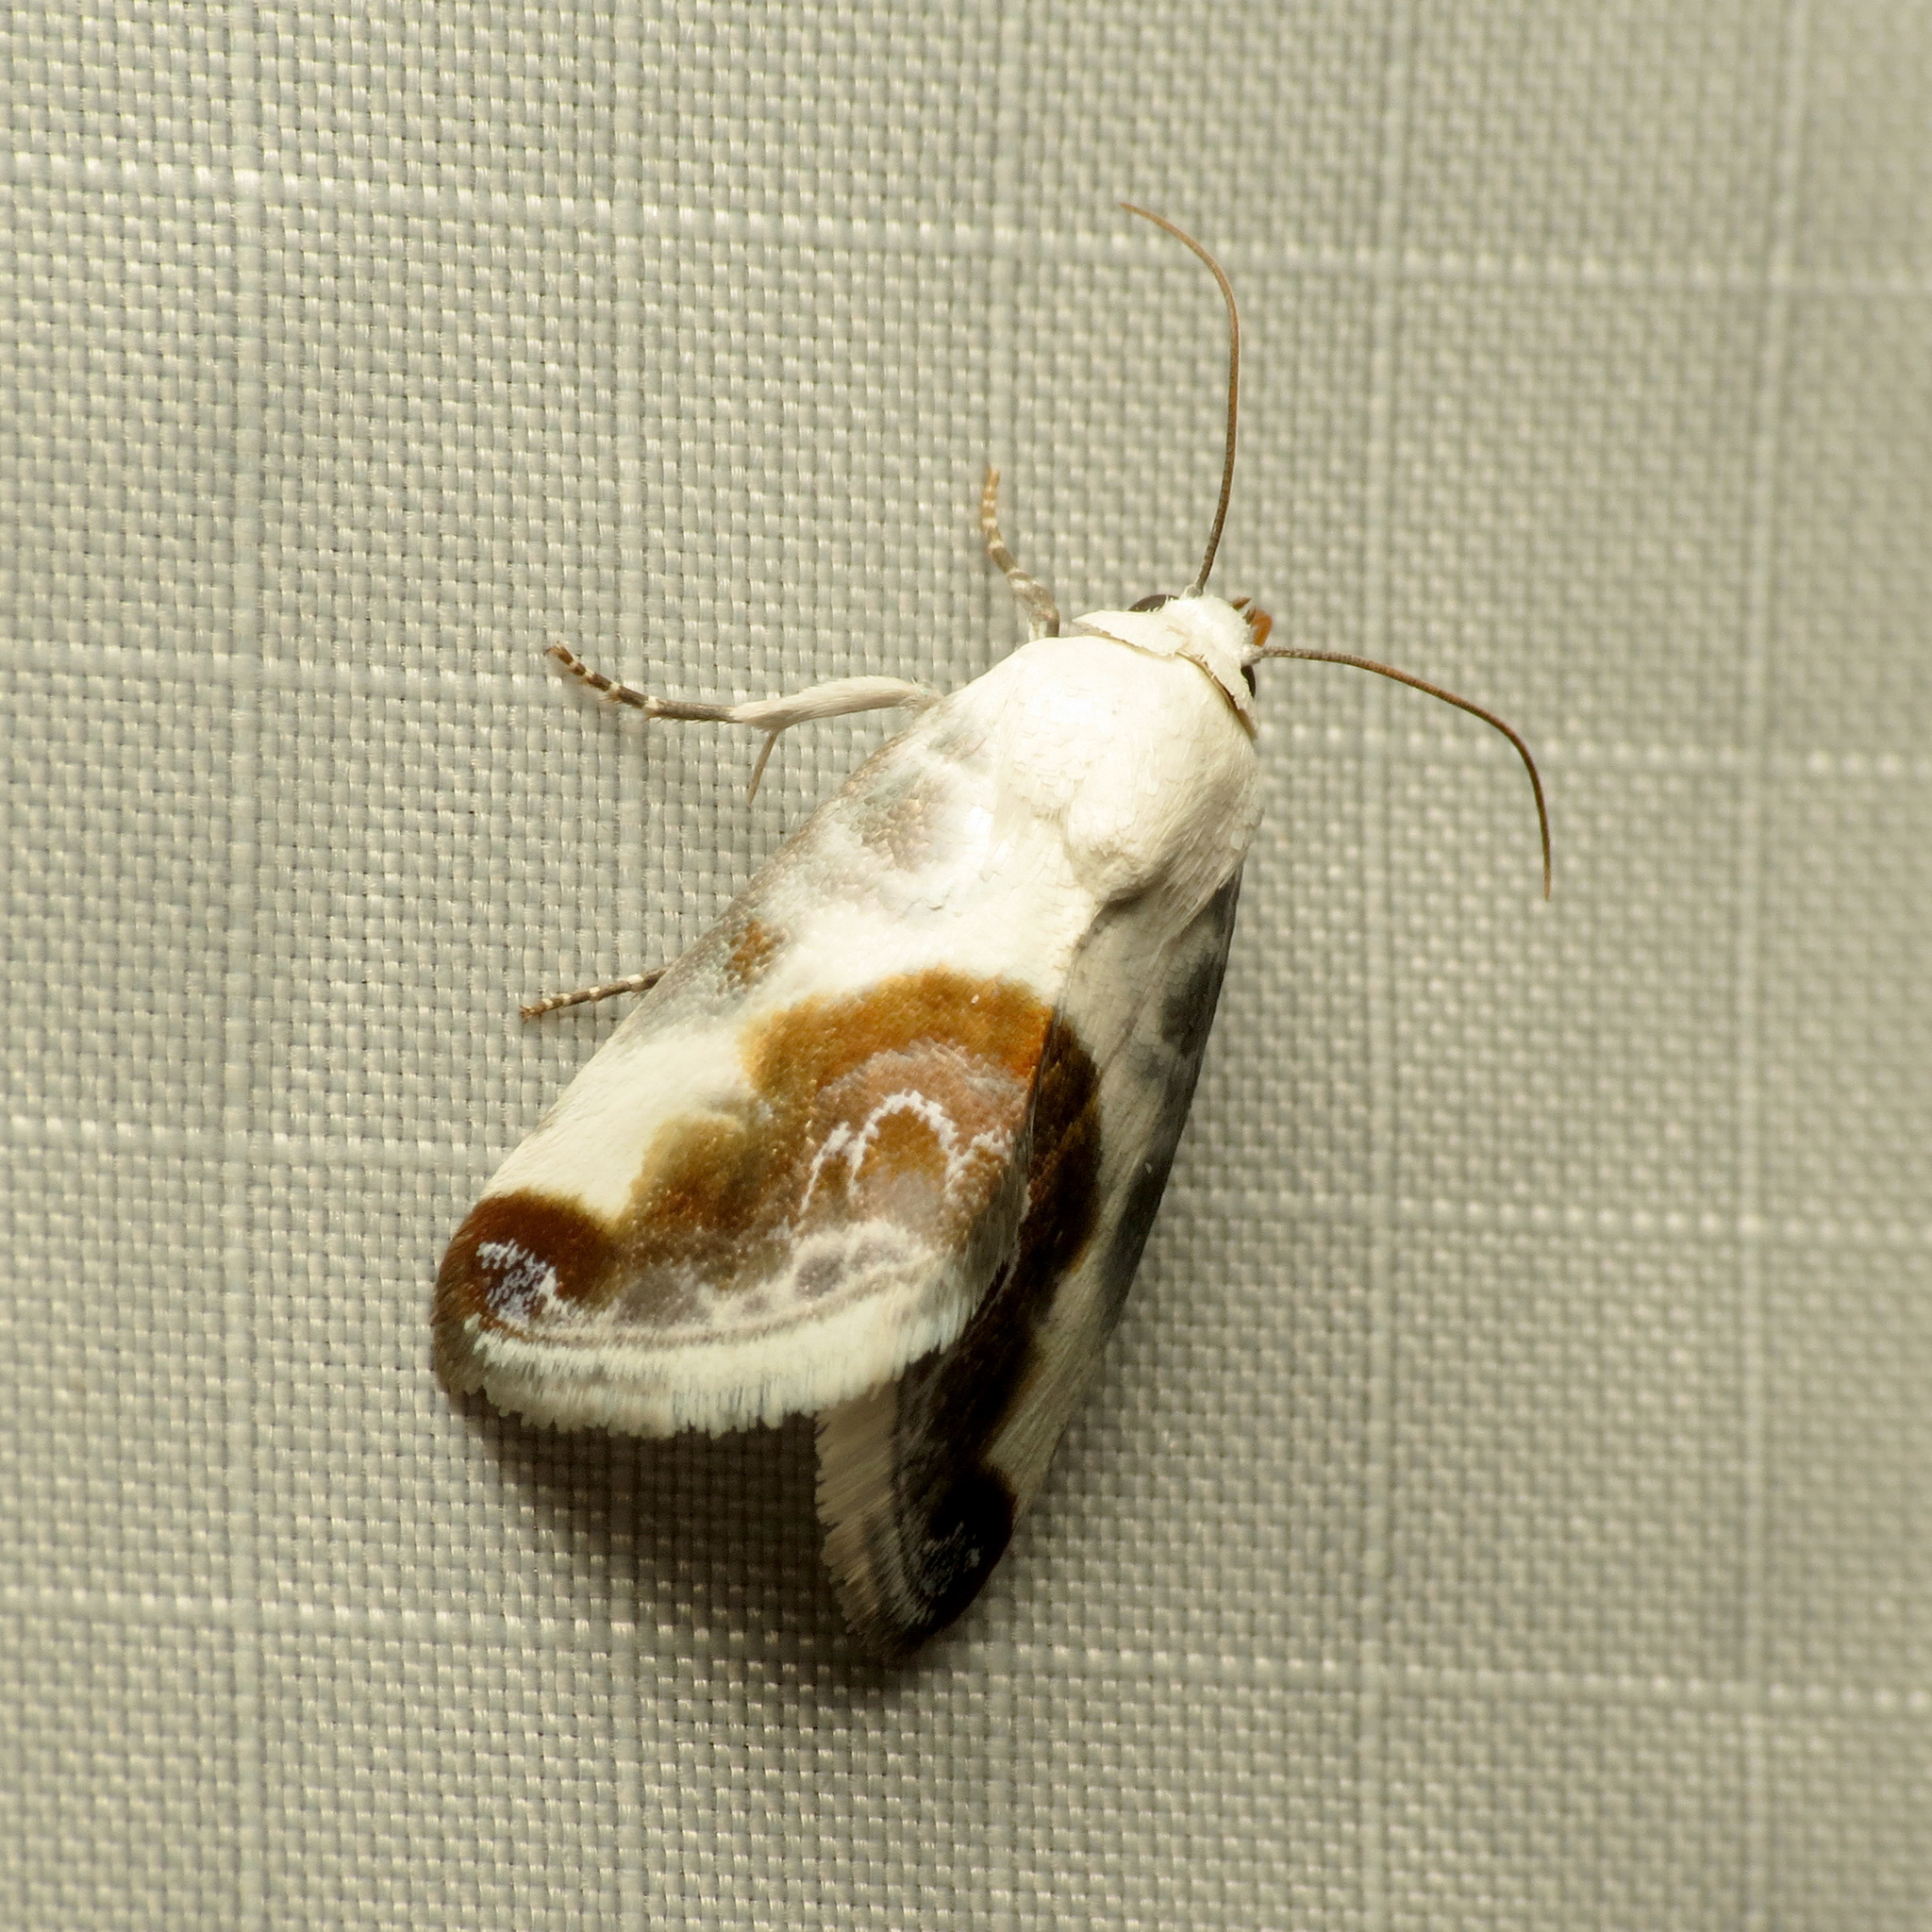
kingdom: Animalia
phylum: Arthropoda
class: Insecta
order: Lepidoptera
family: Noctuidae
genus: Acontia
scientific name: Acontia cretata
